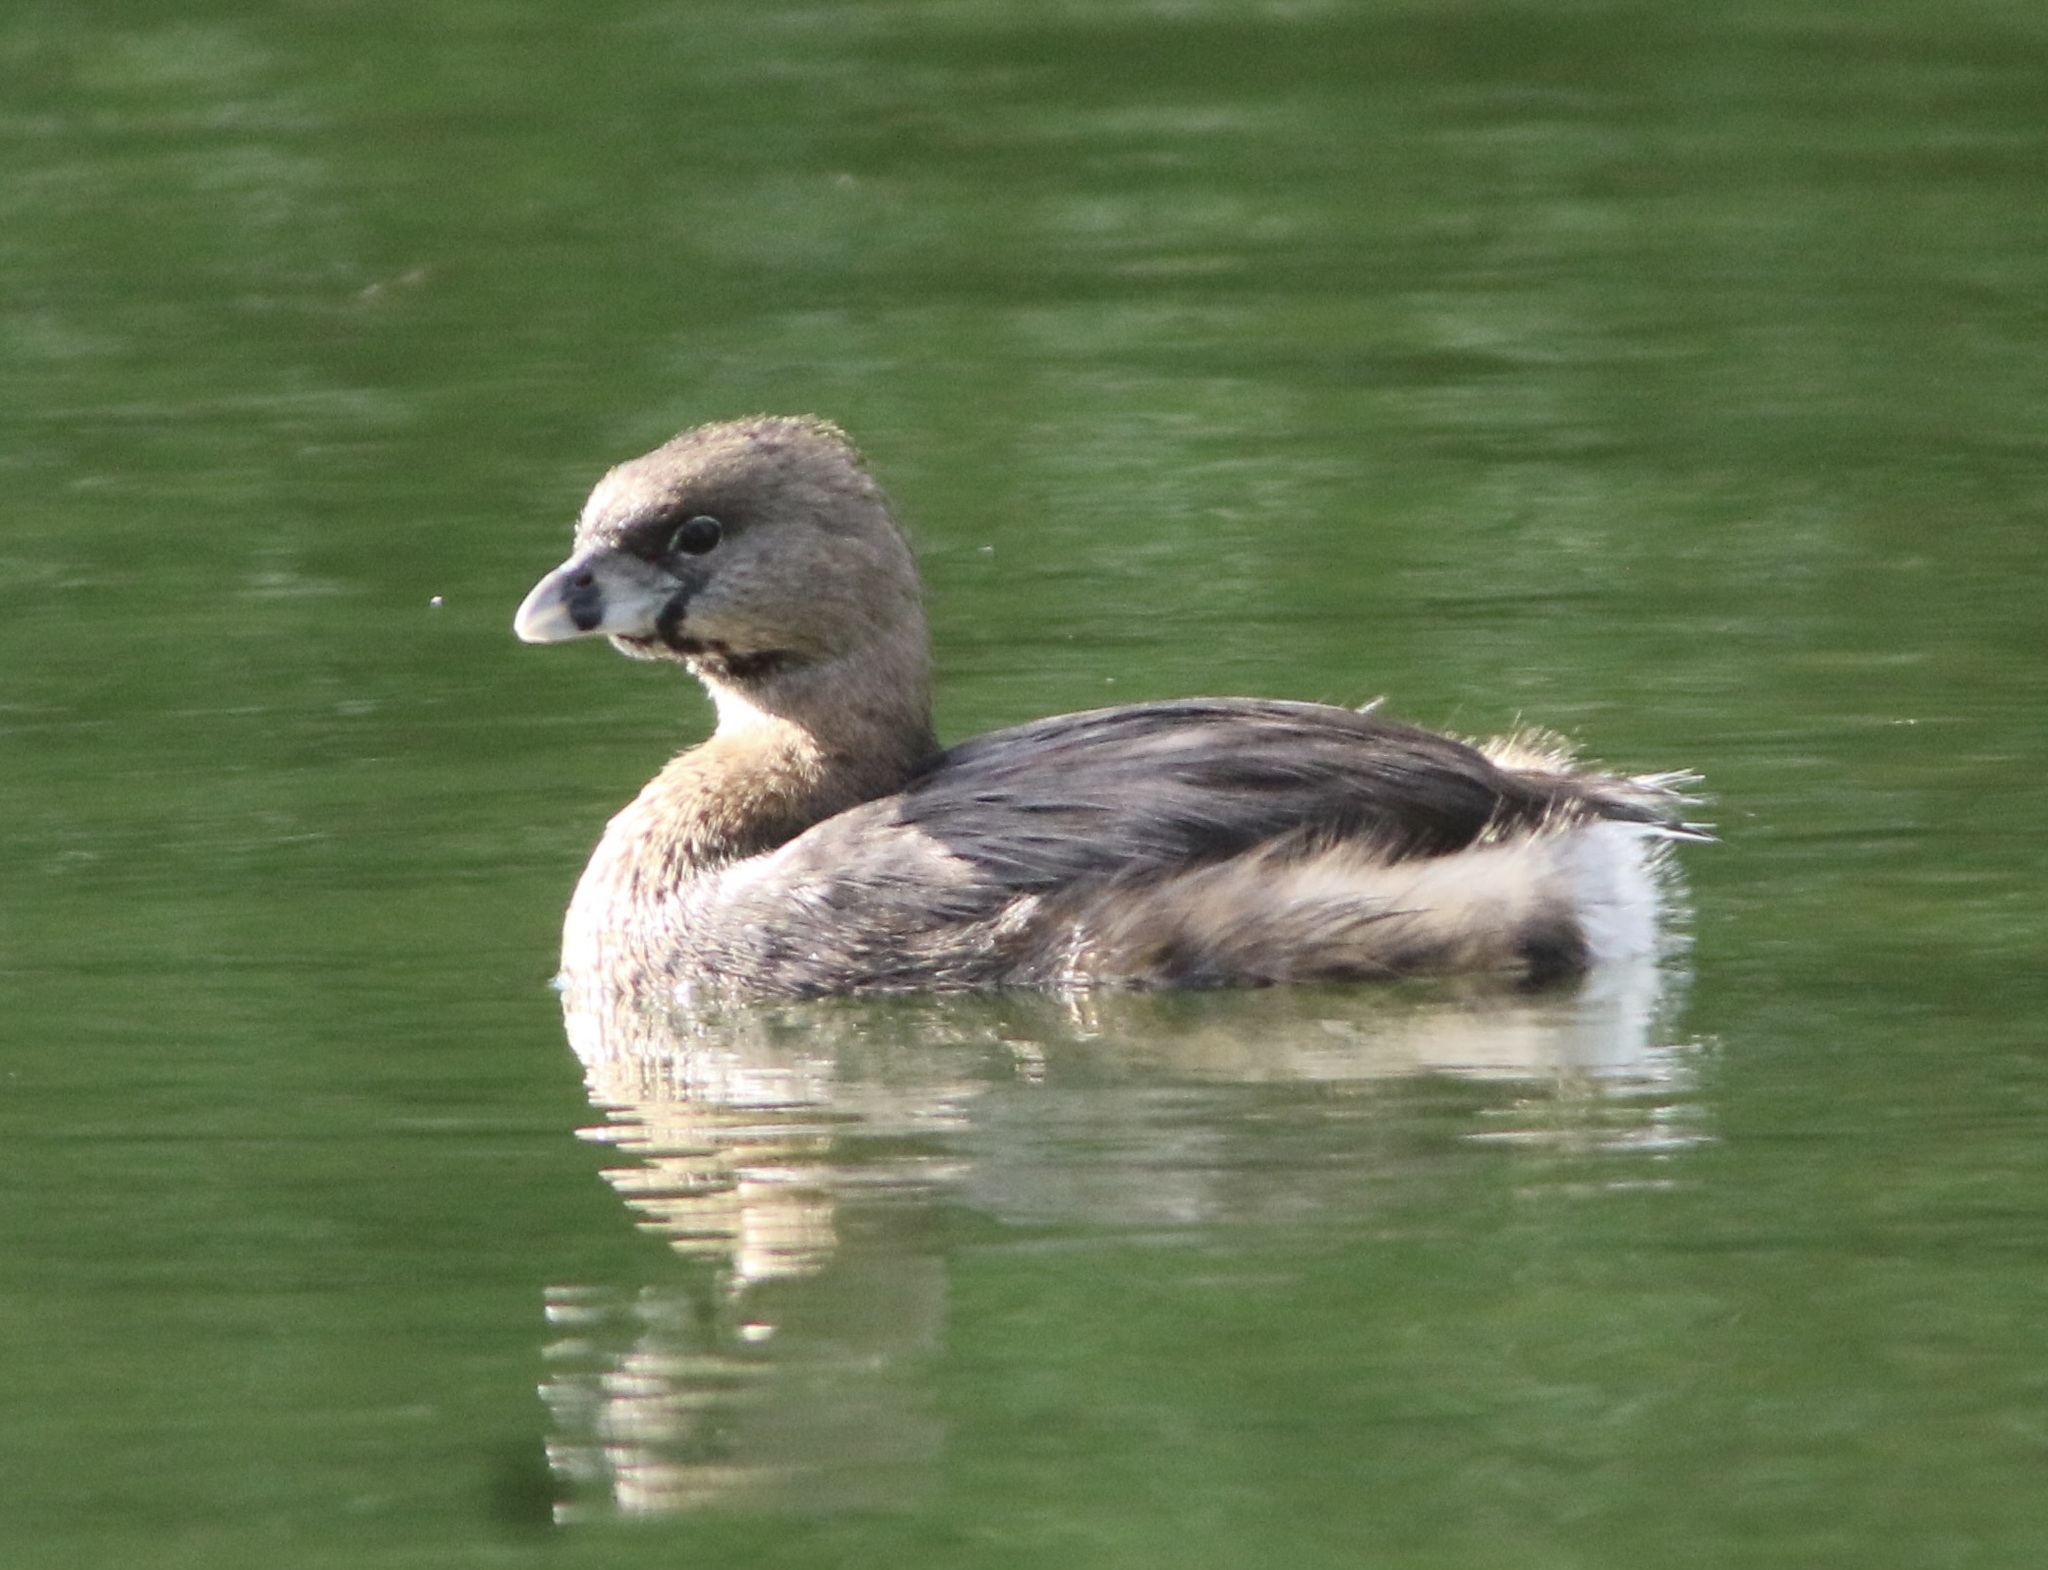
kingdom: Animalia
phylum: Chordata
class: Aves
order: Podicipediformes
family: Podicipedidae
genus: Podilymbus
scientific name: Podilymbus podiceps
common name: Pied-billed grebe
